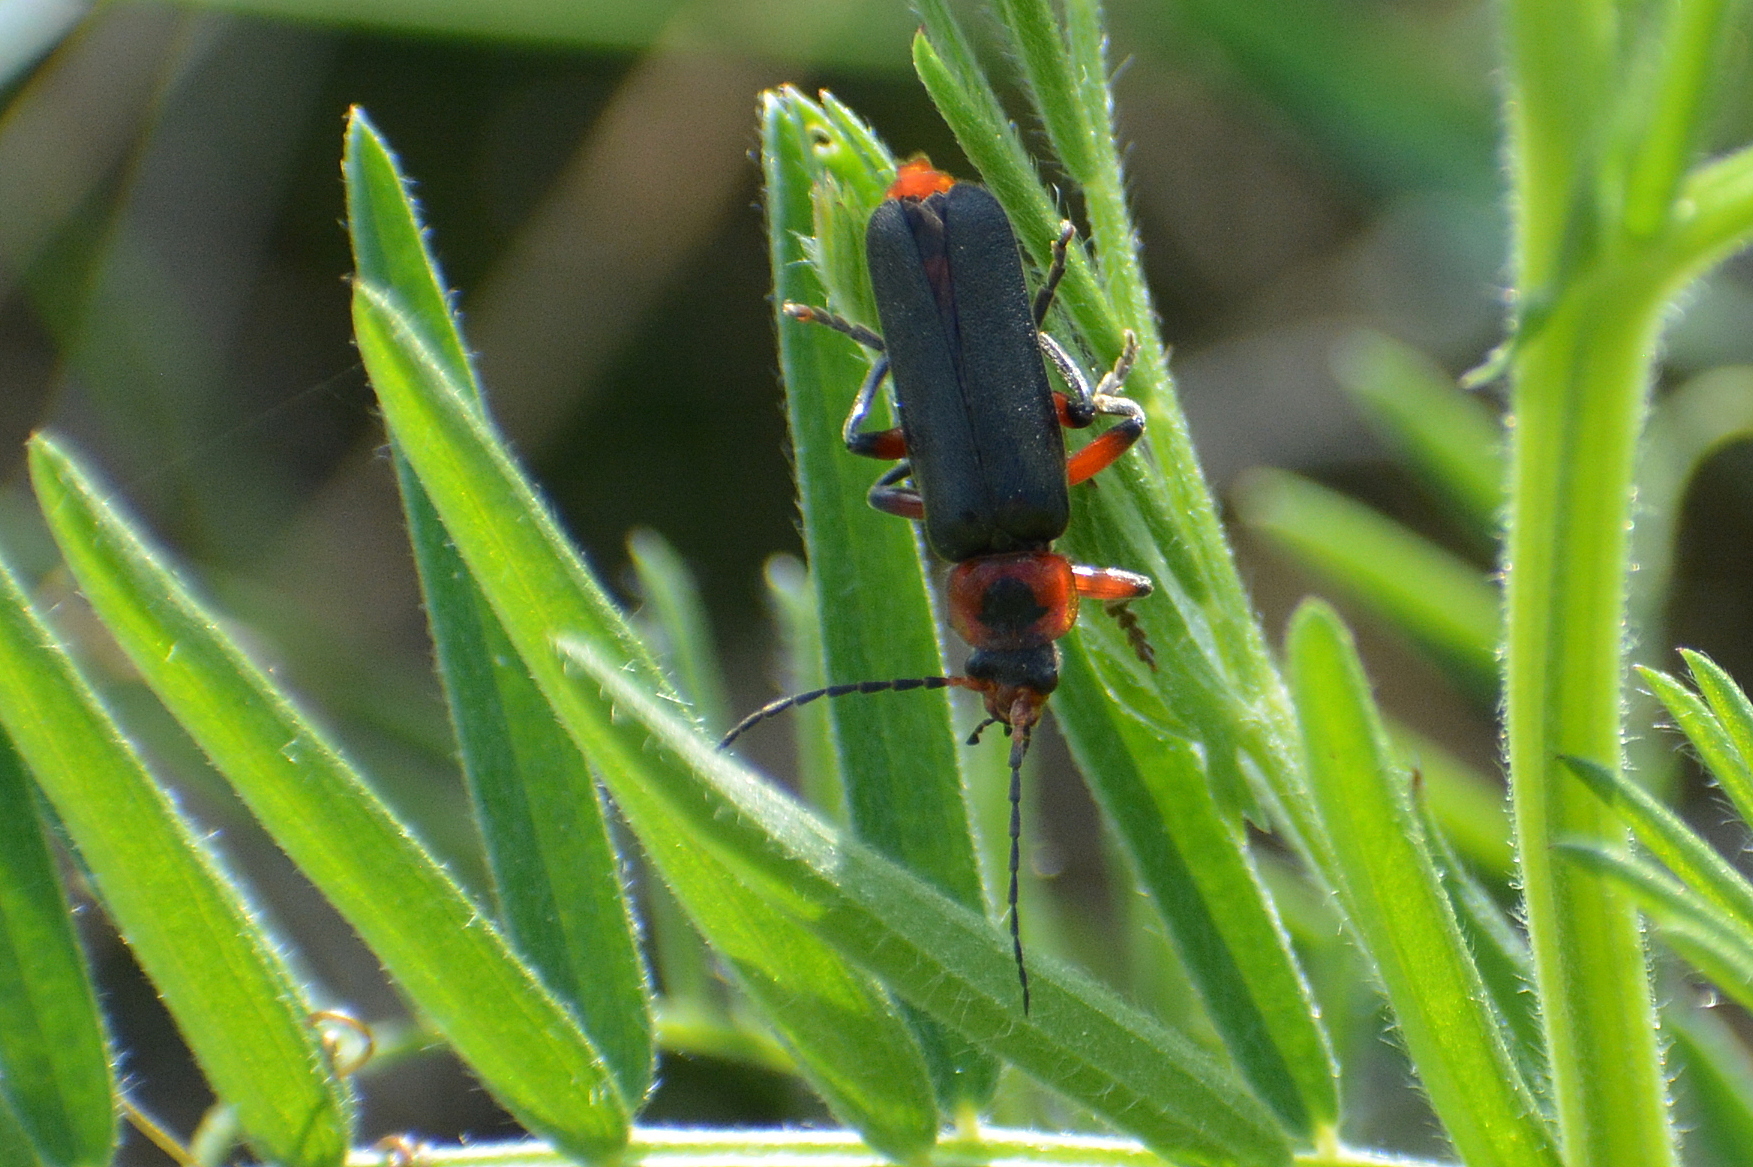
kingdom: Animalia
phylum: Arthropoda
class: Insecta
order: Coleoptera
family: Cantharidae
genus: Cantharis
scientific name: Cantharis rustica
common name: Soldier beetle
